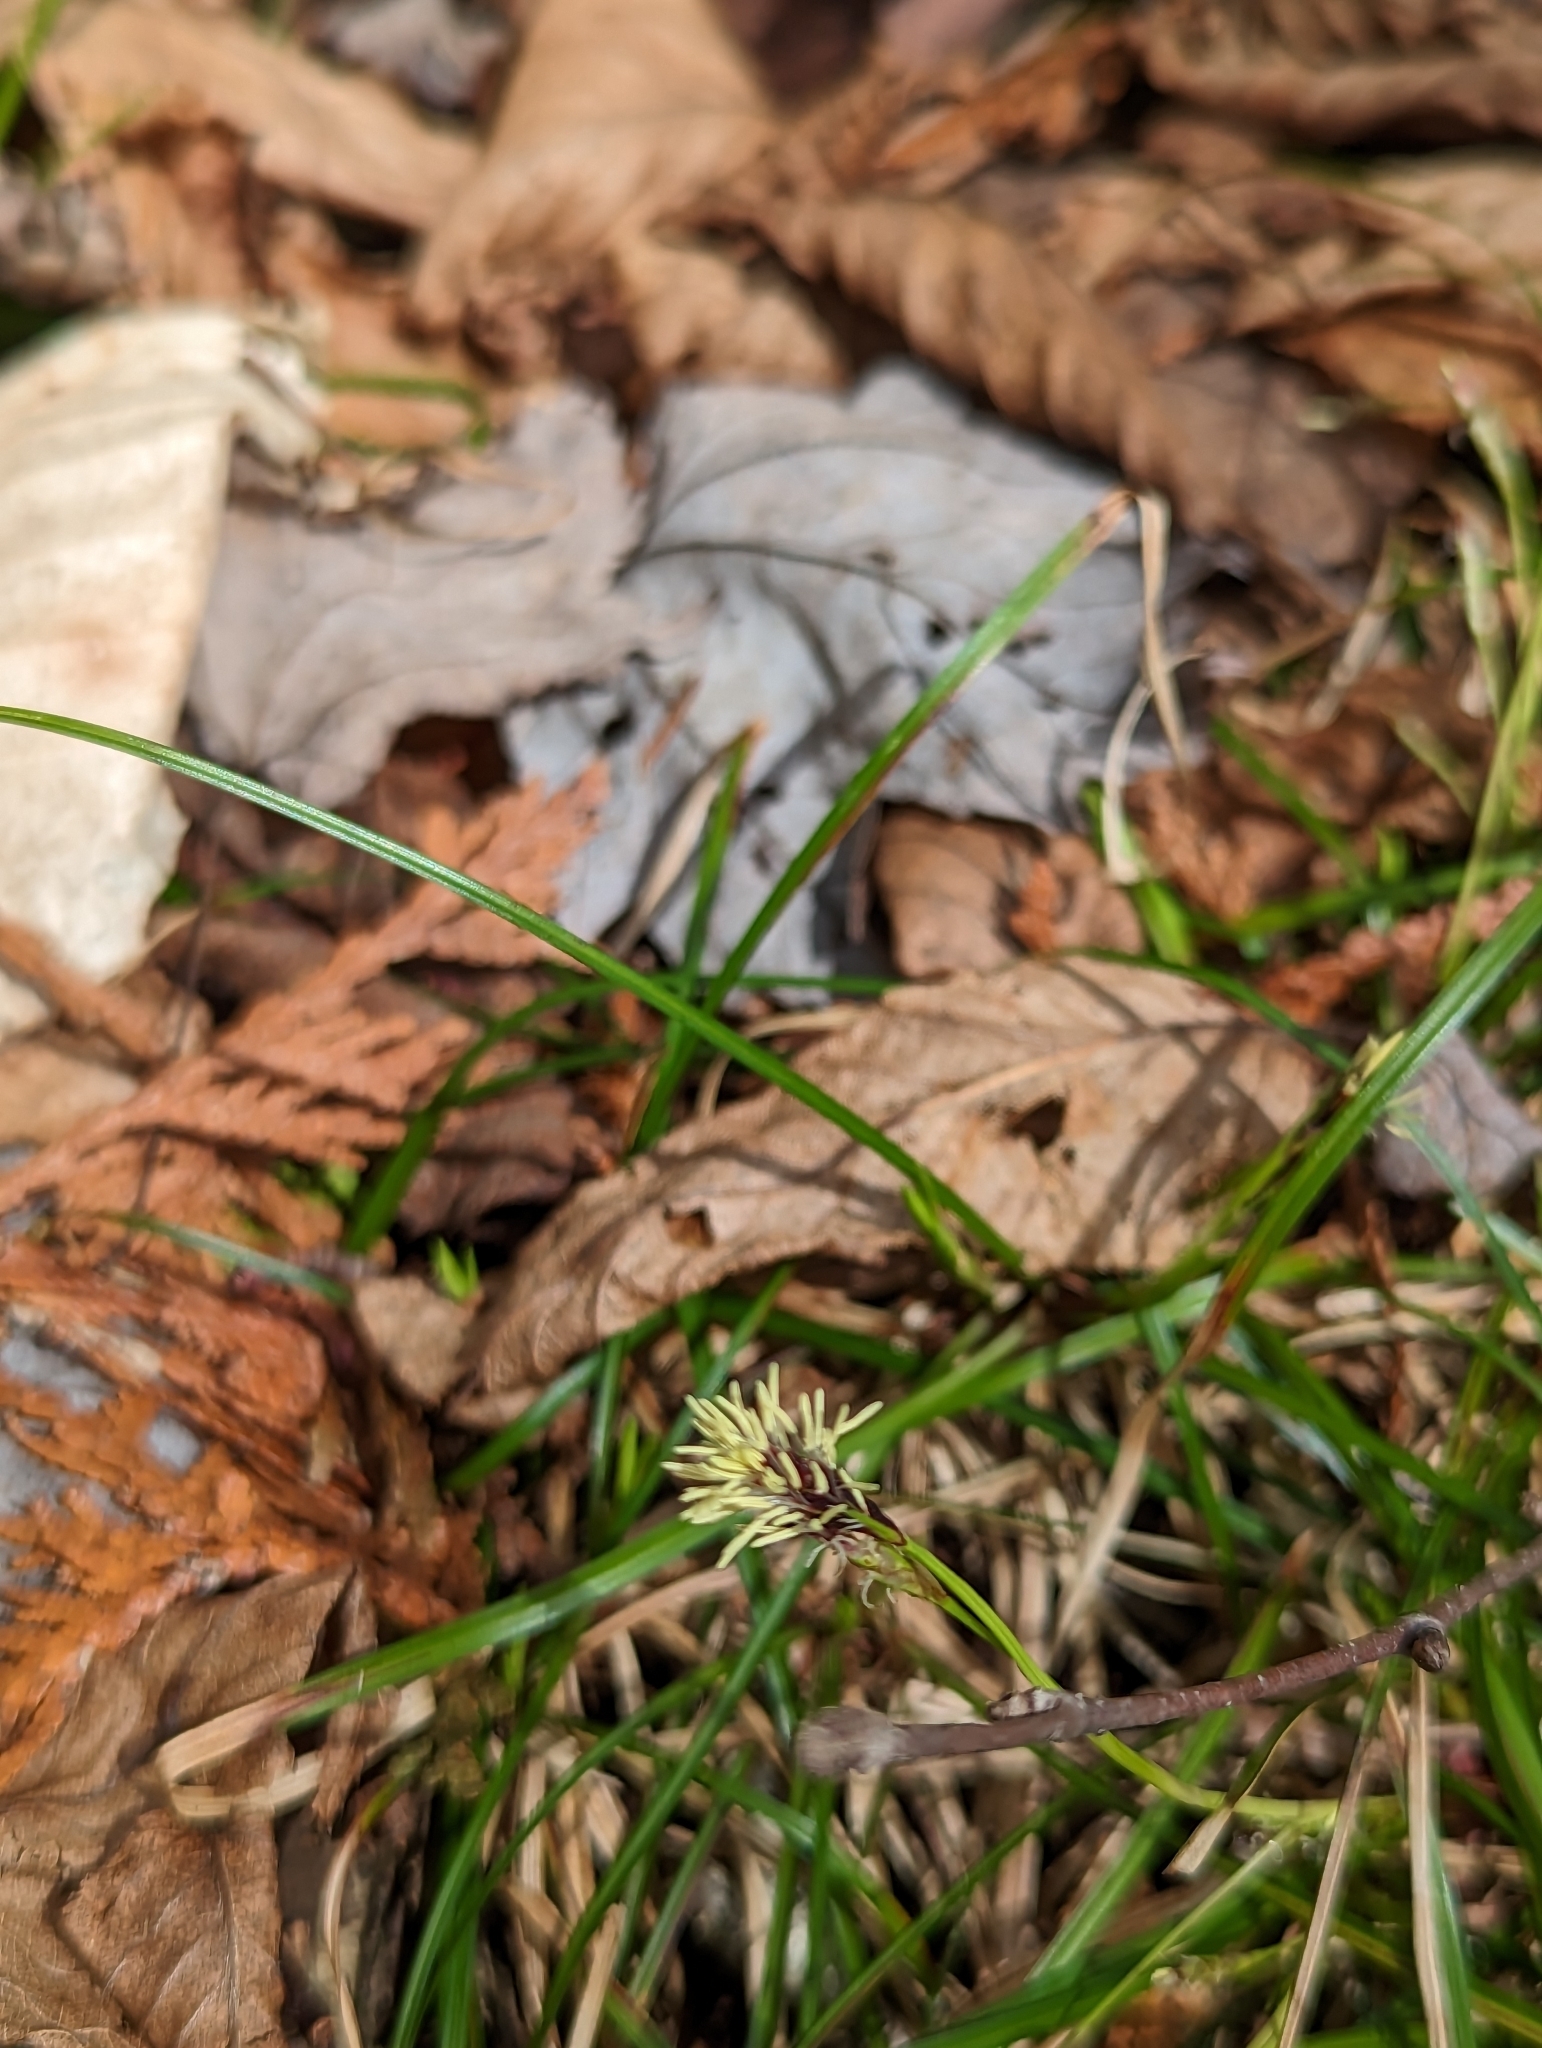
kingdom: Plantae
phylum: Tracheophyta
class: Liliopsida
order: Poales
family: Cyperaceae
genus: Carex
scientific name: Carex pedunculata
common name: Pedunculate sedge
